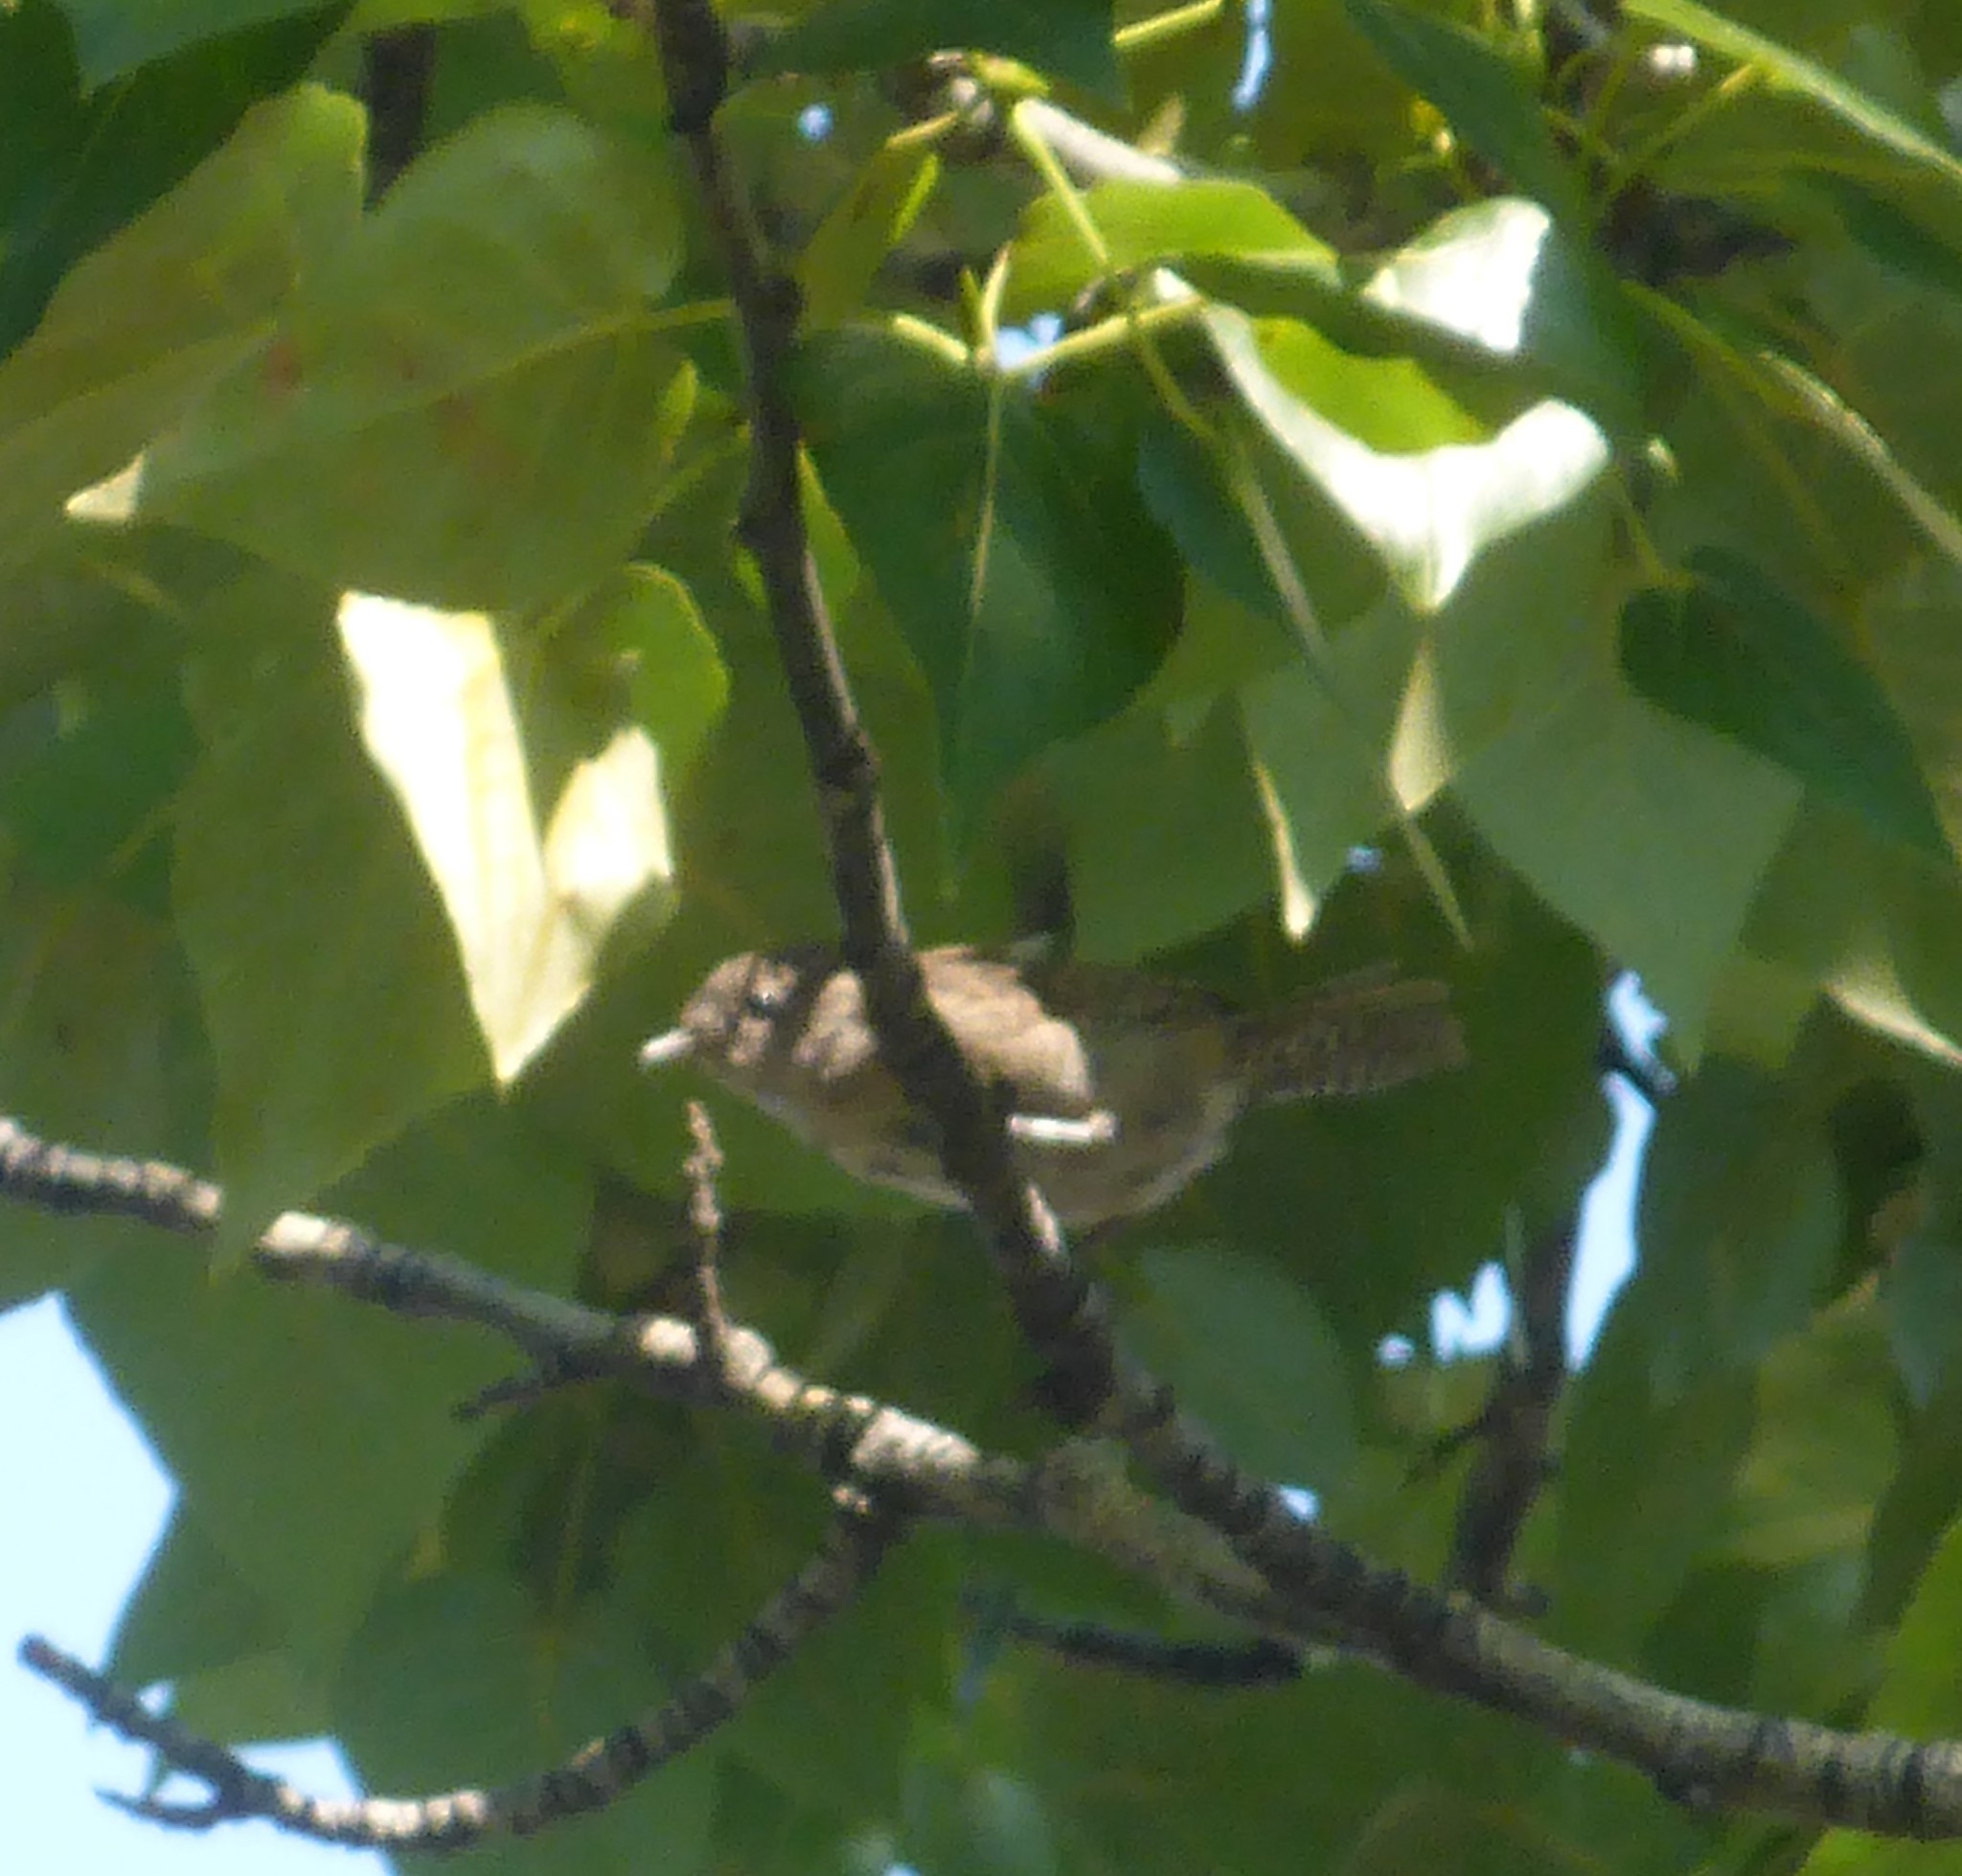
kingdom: Animalia
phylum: Chordata
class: Aves
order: Passeriformes
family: Troglodytidae
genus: Troglodytes
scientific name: Troglodytes aedon
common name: House wren
